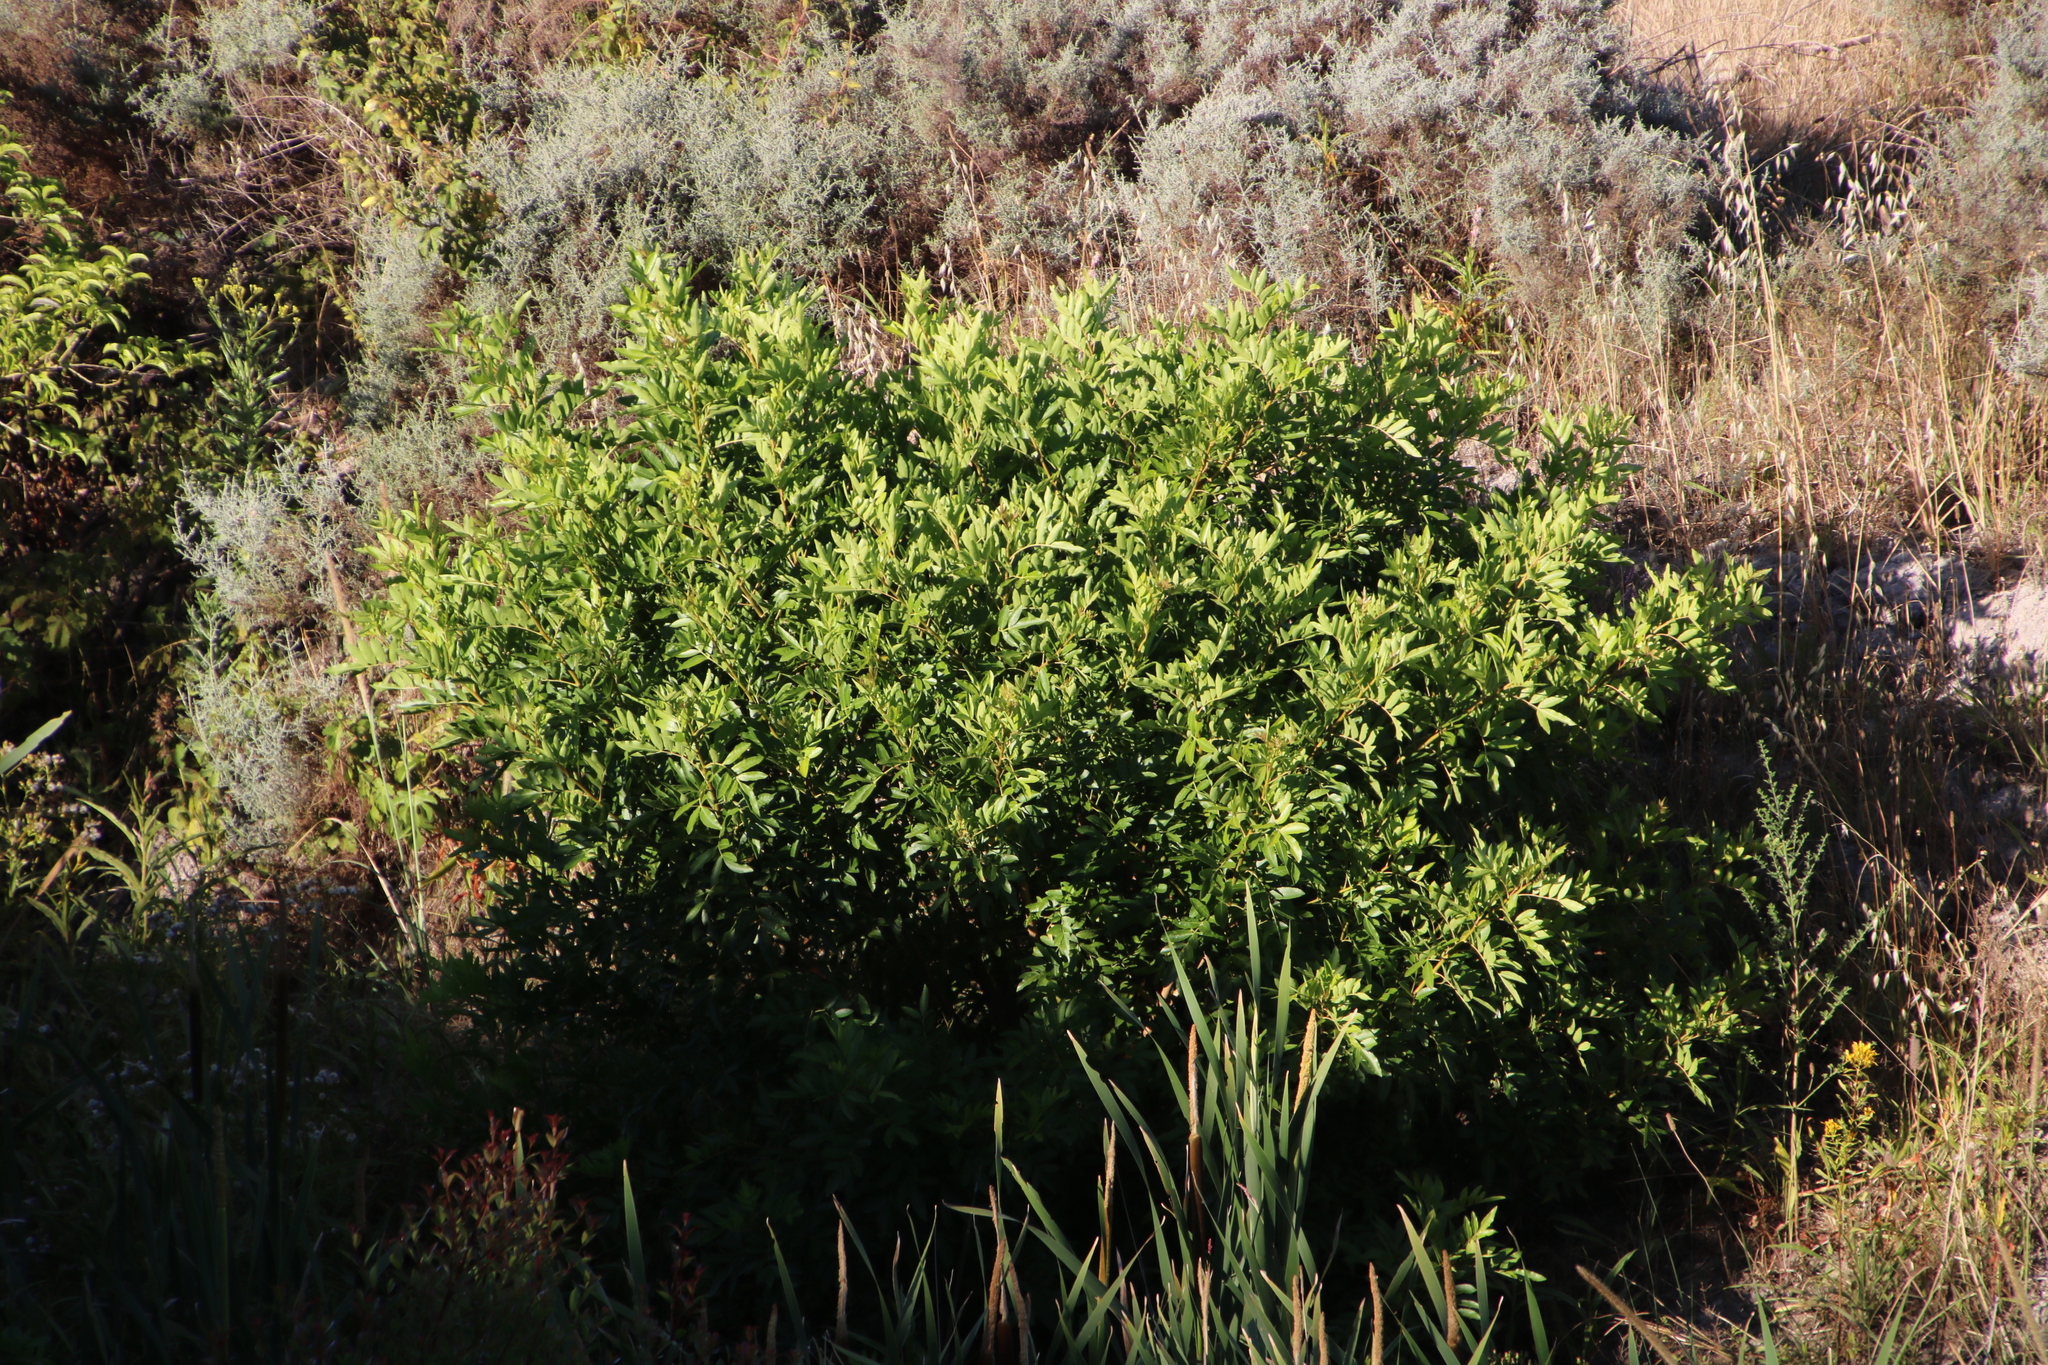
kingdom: Plantae
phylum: Tracheophyta
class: Magnoliopsida
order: Sapindales
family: Anacardiaceae
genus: Schinus
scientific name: Schinus terebinthifolia
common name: Brazilian peppertree
